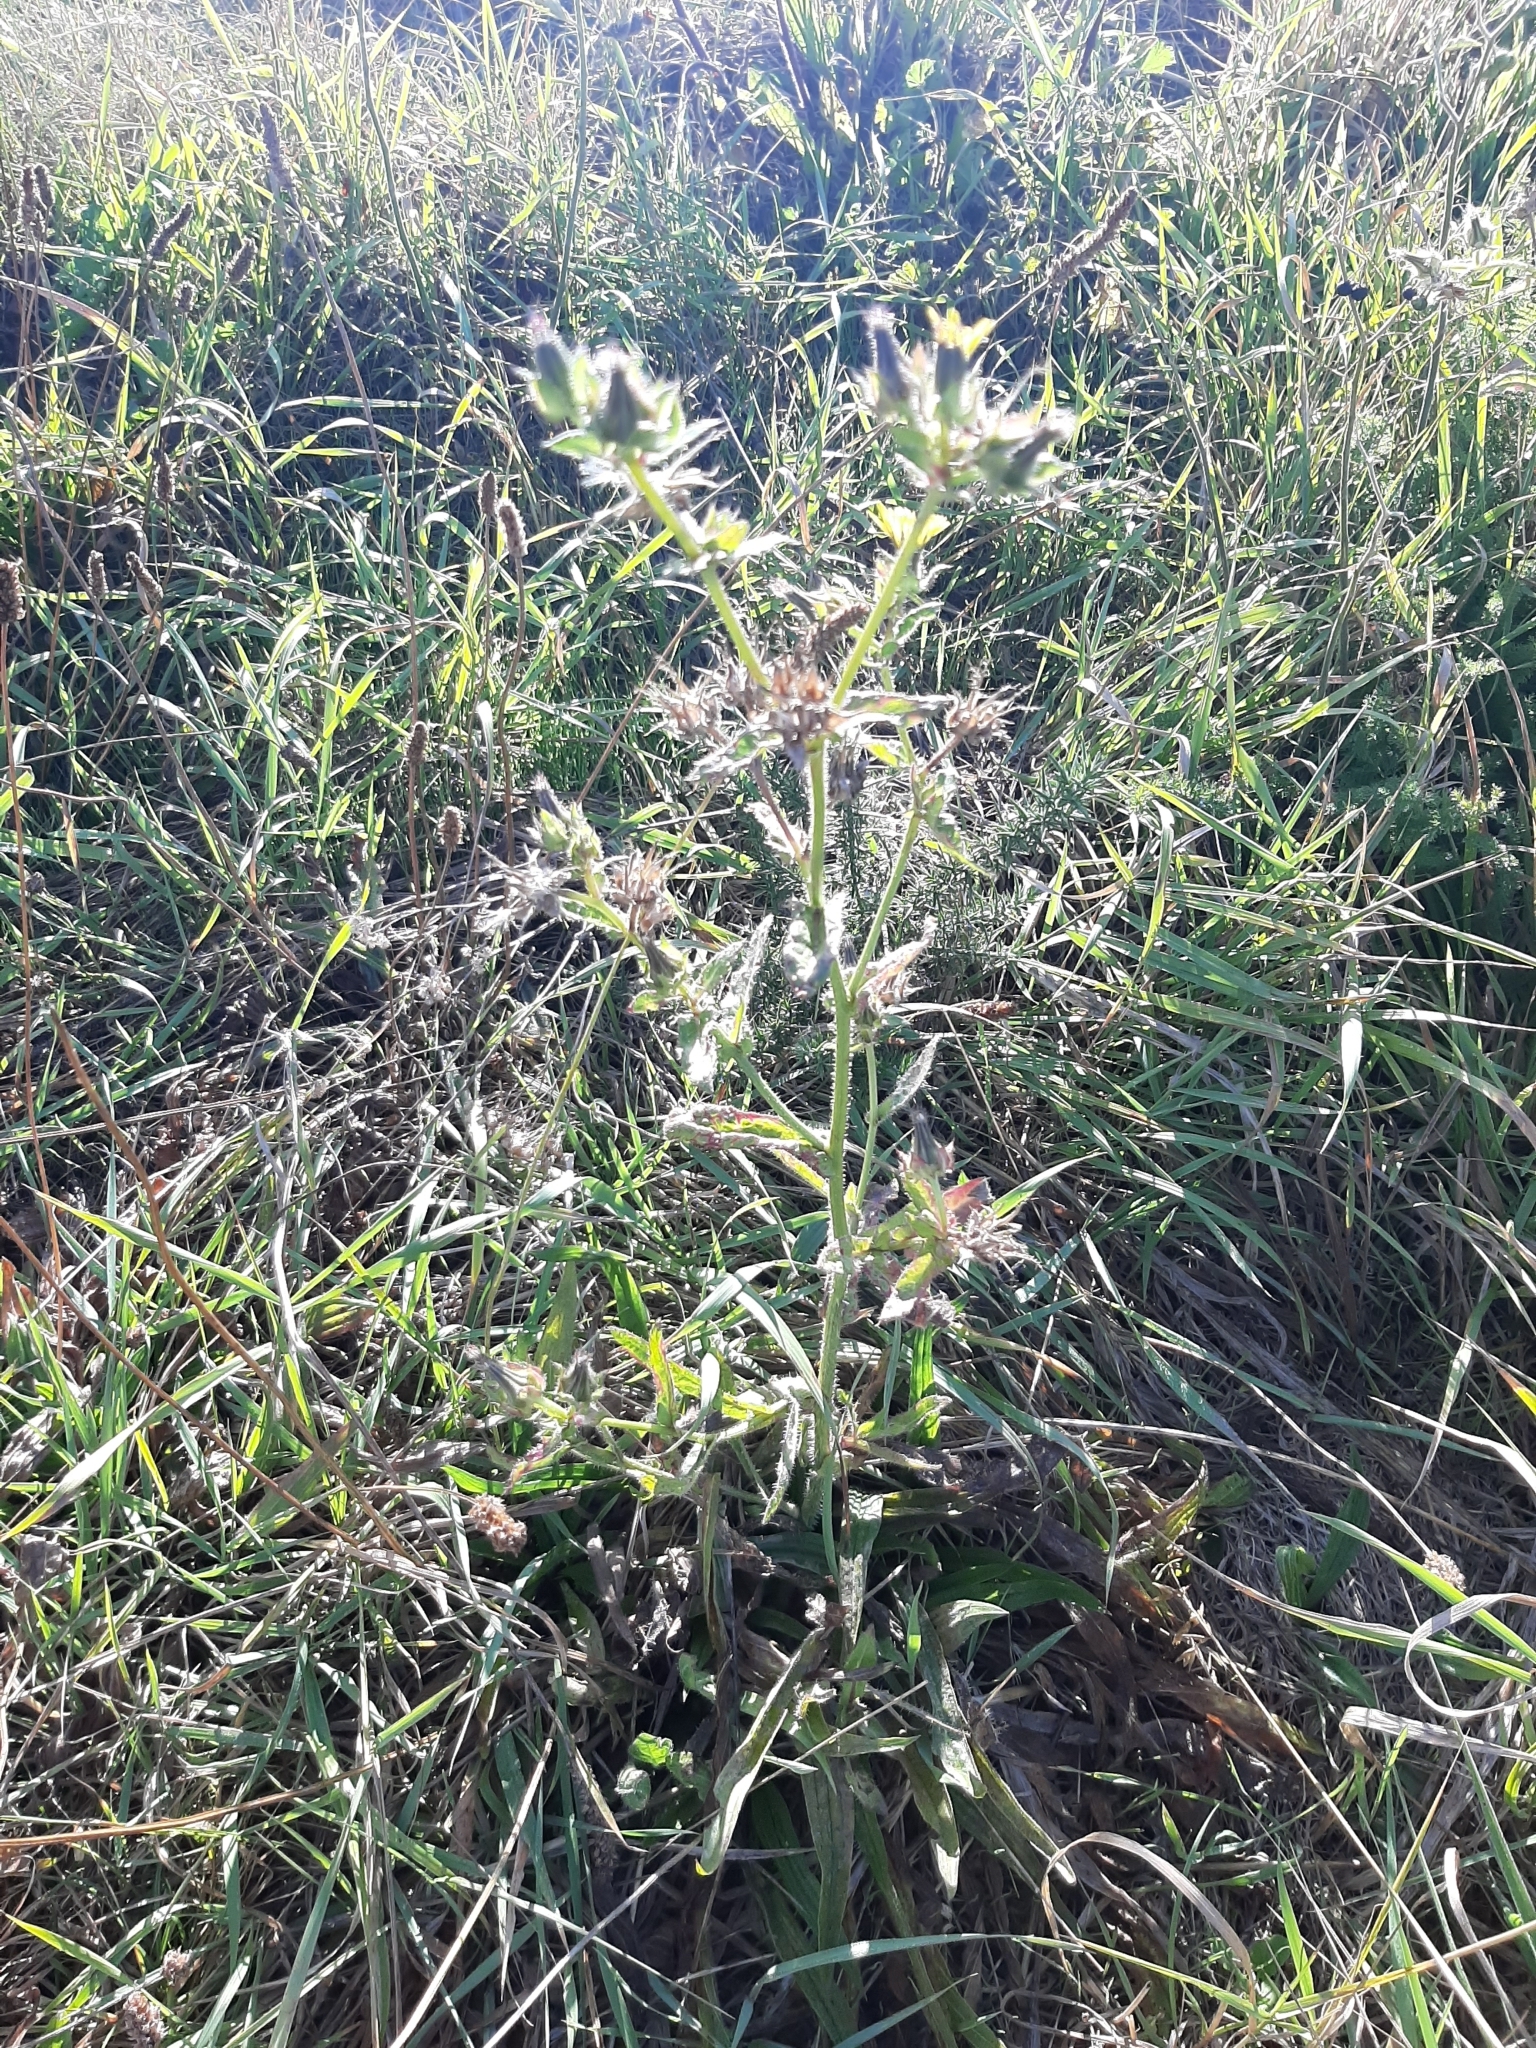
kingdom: Plantae
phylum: Tracheophyta
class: Magnoliopsida
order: Asterales
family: Asteraceae
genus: Helminthotheca
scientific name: Helminthotheca echioides
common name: Ox-tongue
